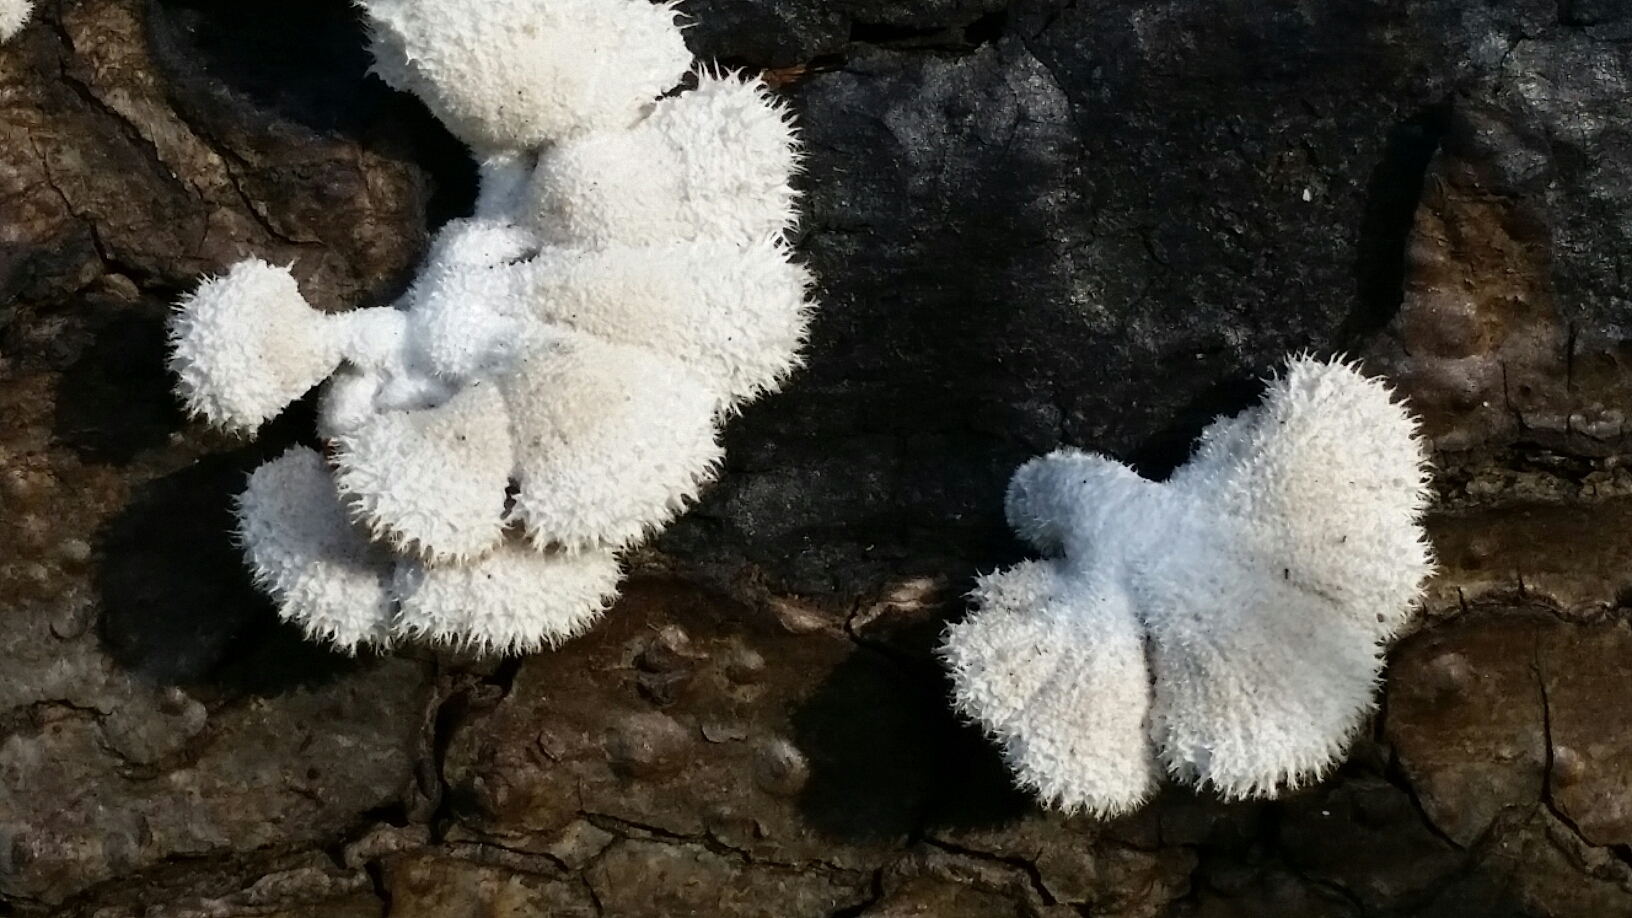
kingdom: Fungi
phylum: Basidiomycota
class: Agaricomycetes
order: Agaricales
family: Schizophyllaceae
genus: Schizophyllum
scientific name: Schizophyllum commune
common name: Common porecrust
